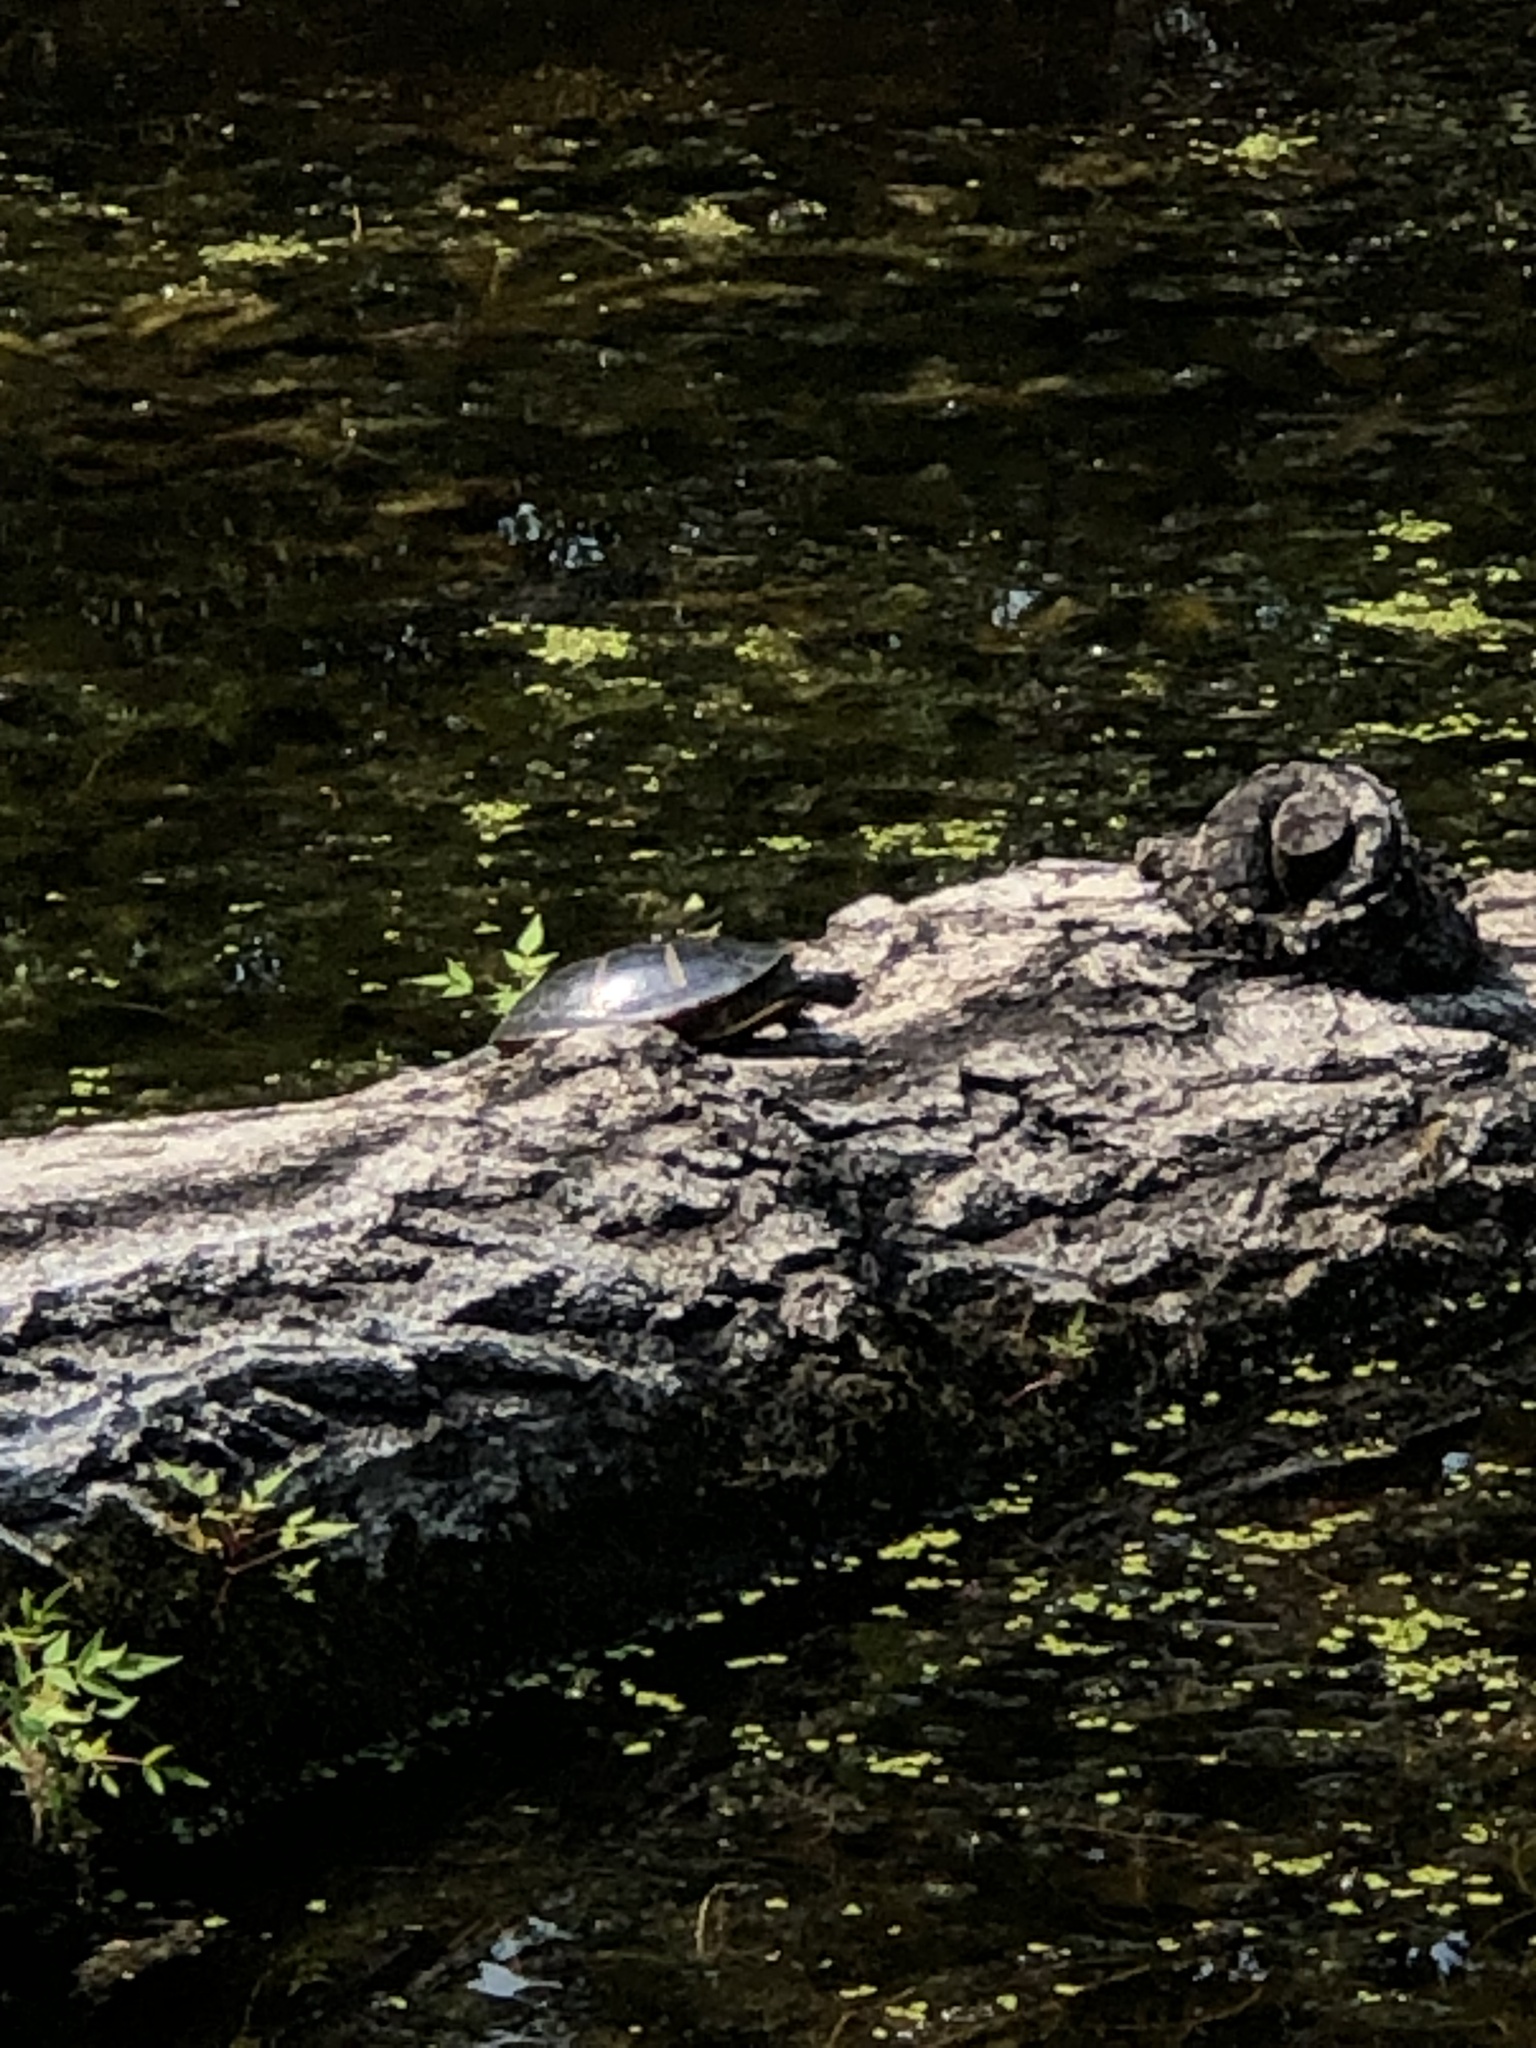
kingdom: Animalia
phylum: Chordata
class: Testudines
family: Emydidae
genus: Chrysemys
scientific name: Chrysemys picta
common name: Painted turtle
